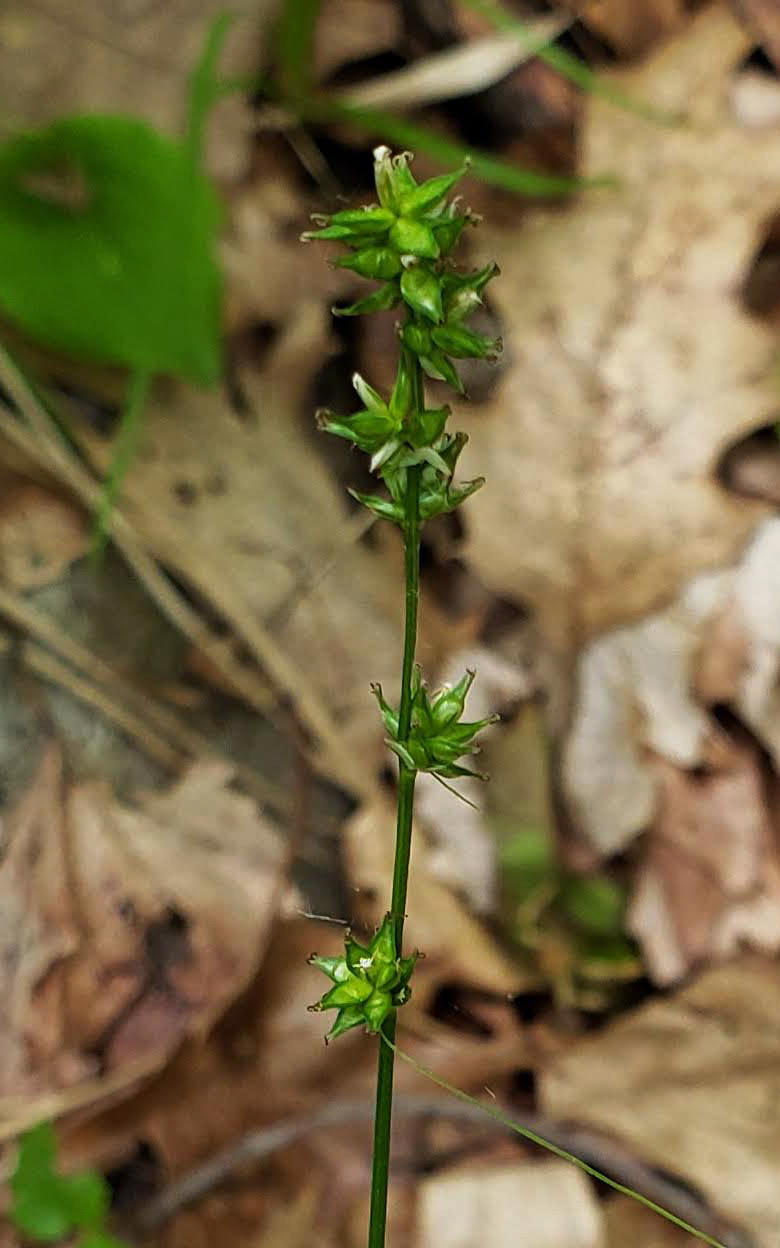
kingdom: Plantae
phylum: Tracheophyta
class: Liliopsida
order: Poales
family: Cyperaceae
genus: Carex
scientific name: Carex rosea
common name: Curly-styled wood sedge
